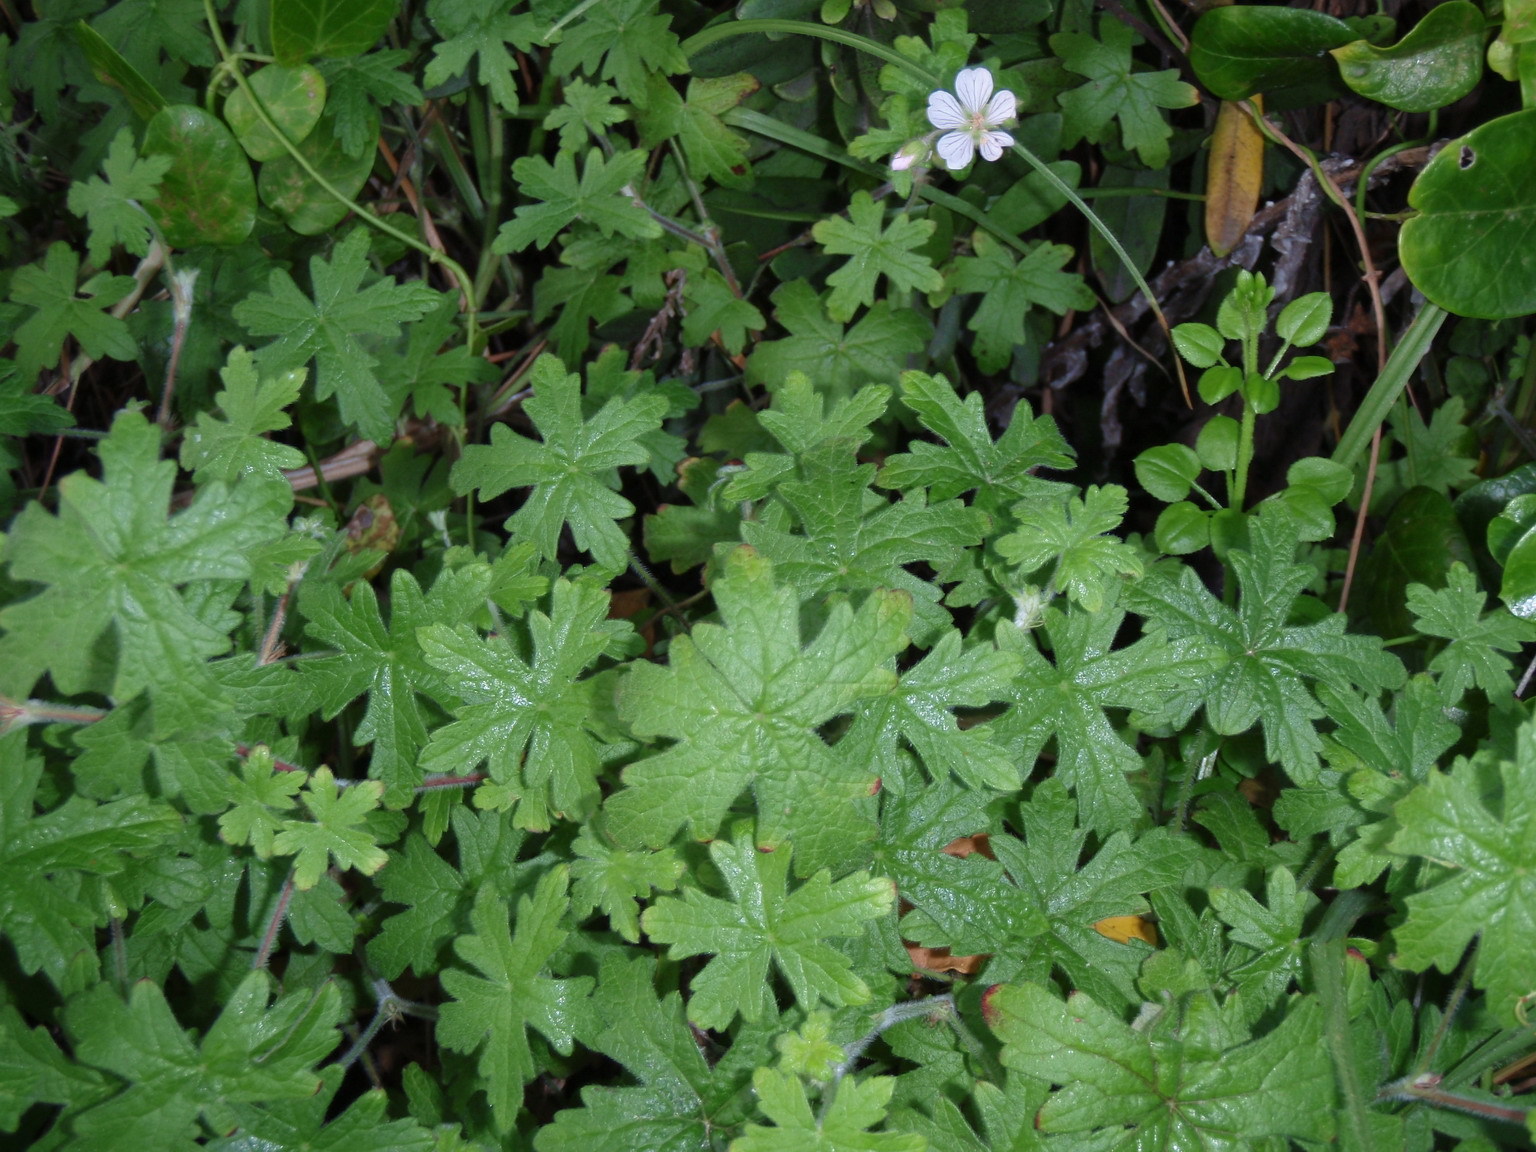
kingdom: Plantae
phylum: Tracheophyta
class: Magnoliopsida
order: Geraniales
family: Geraniaceae
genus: Geranium
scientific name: Geranium ornithopodon
